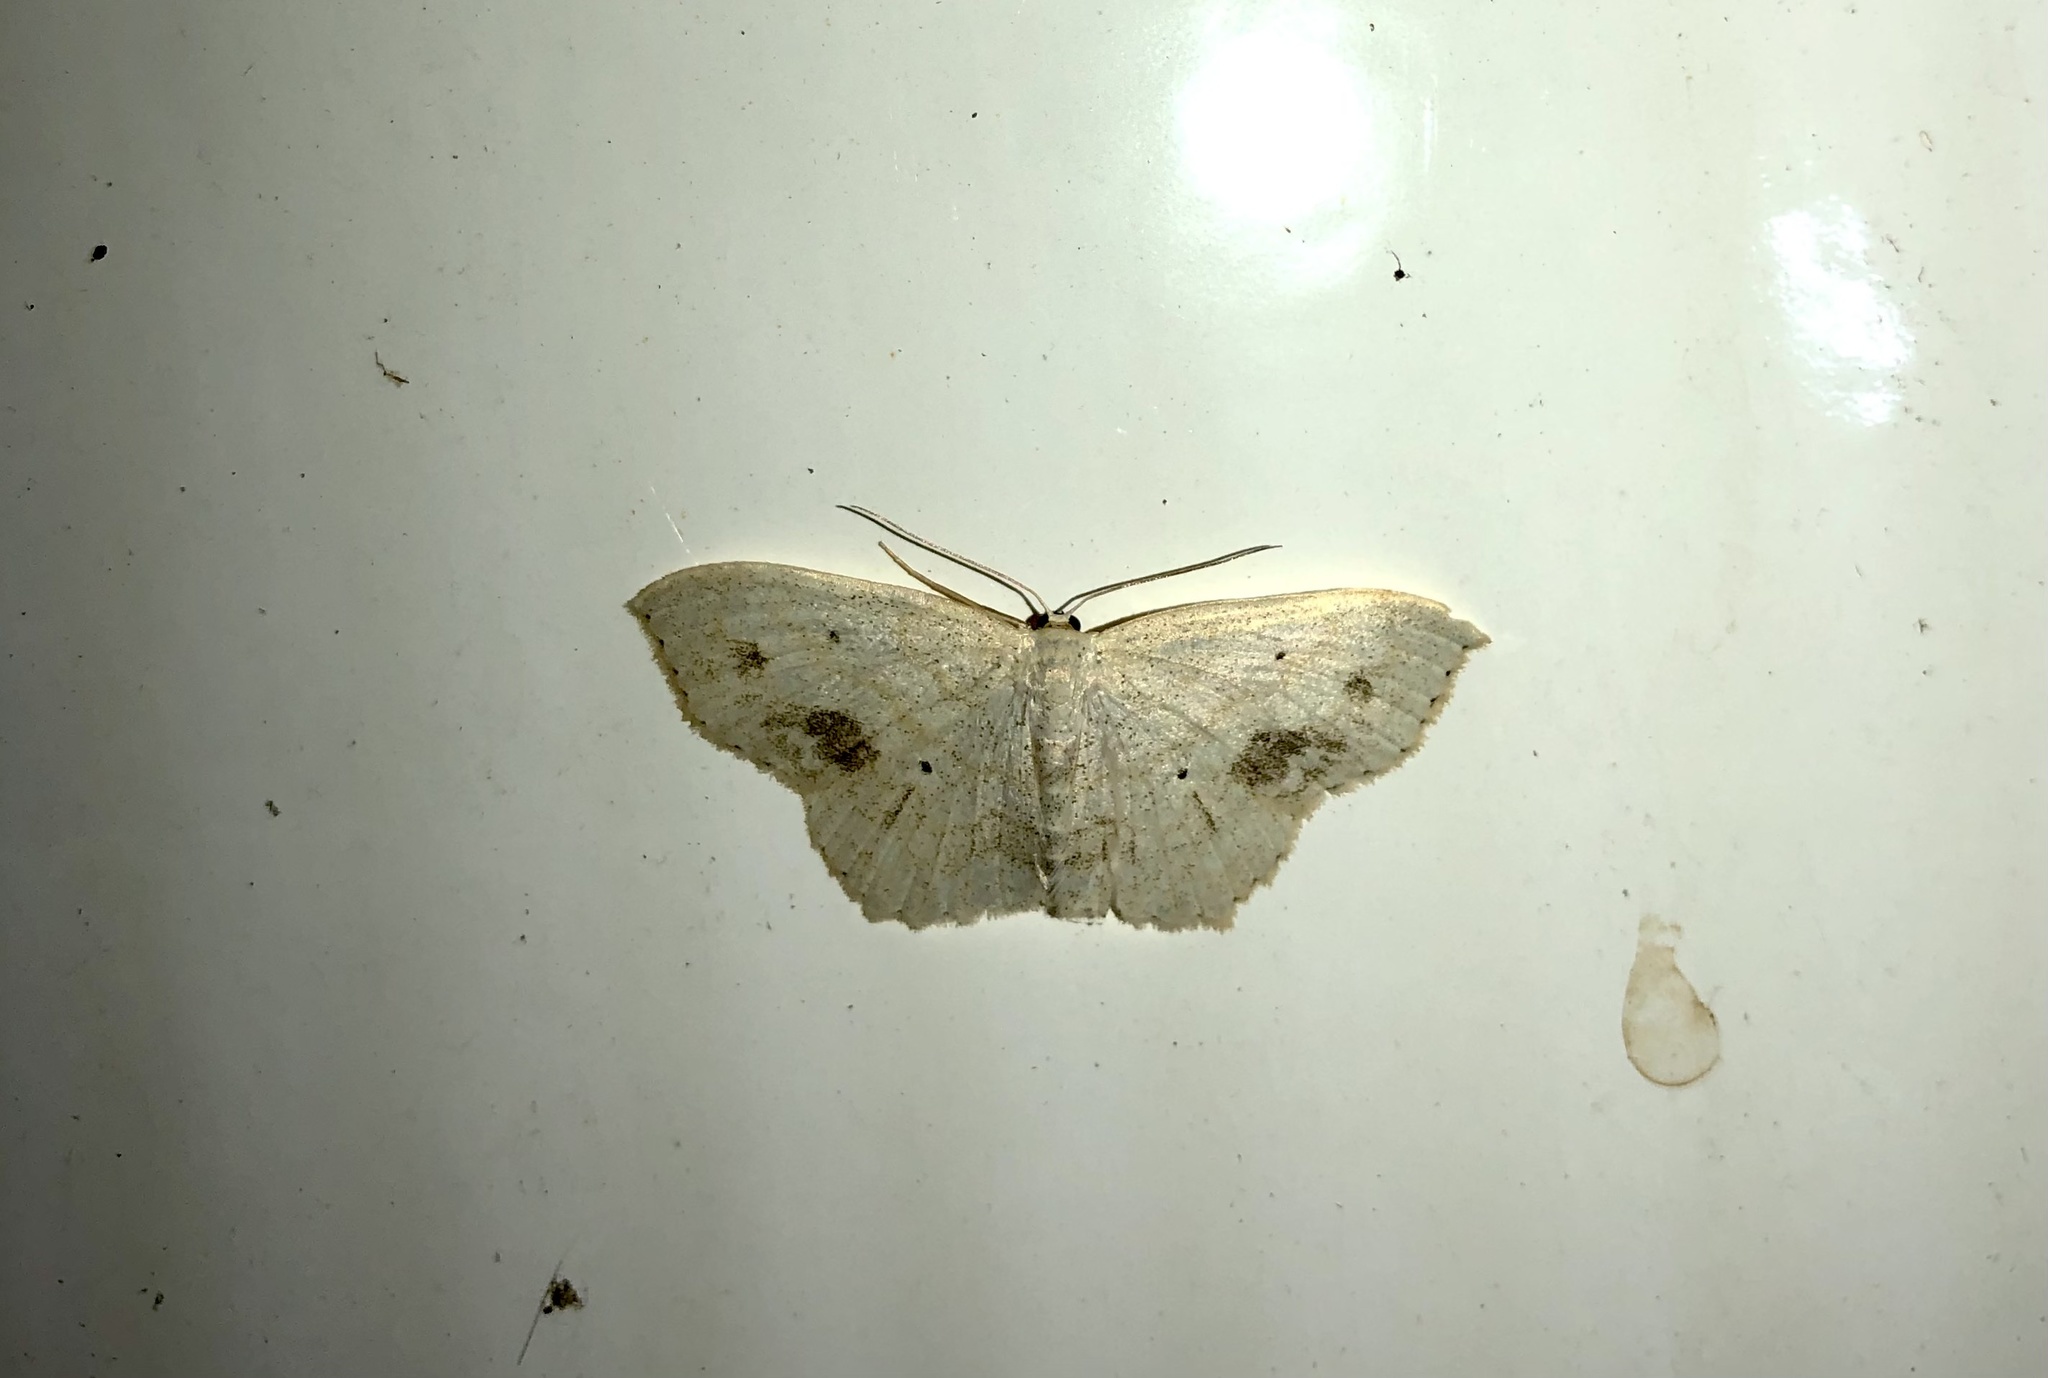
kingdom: Animalia
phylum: Arthropoda
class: Insecta
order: Lepidoptera
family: Geometridae
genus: Scopula
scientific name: Scopula limboundata
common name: Large lace border
